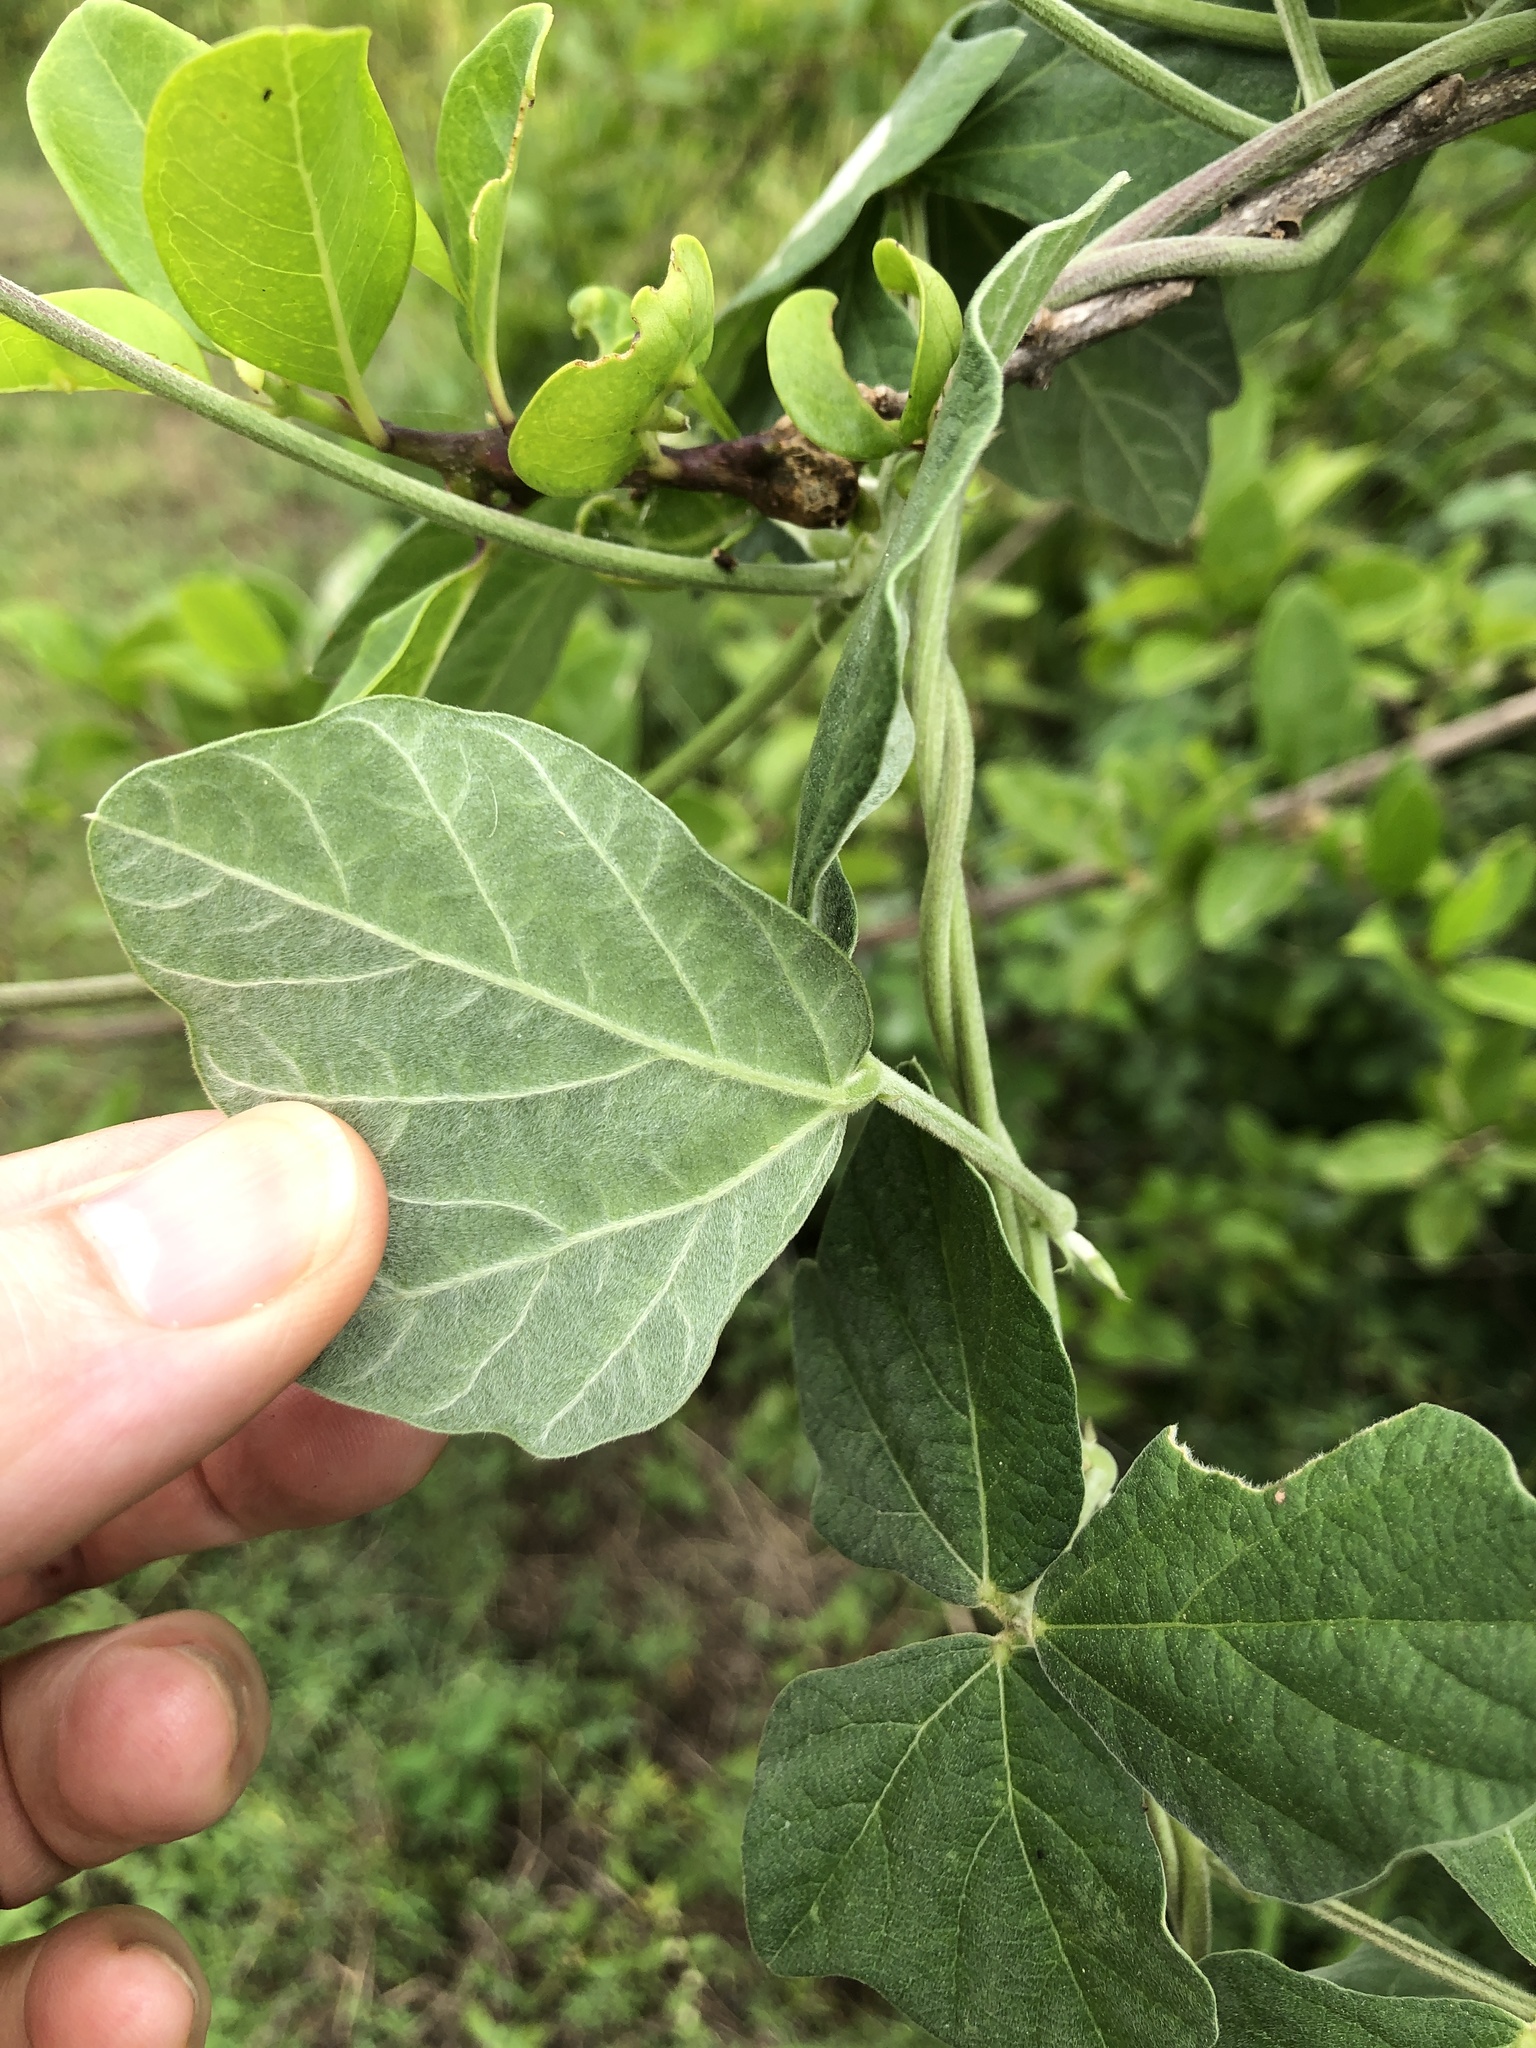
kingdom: Plantae
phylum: Tracheophyta
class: Magnoliopsida
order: Fabales
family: Fabaceae
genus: Macroptilium
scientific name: Macroptilium atropurpureum
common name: Purple bushbean
